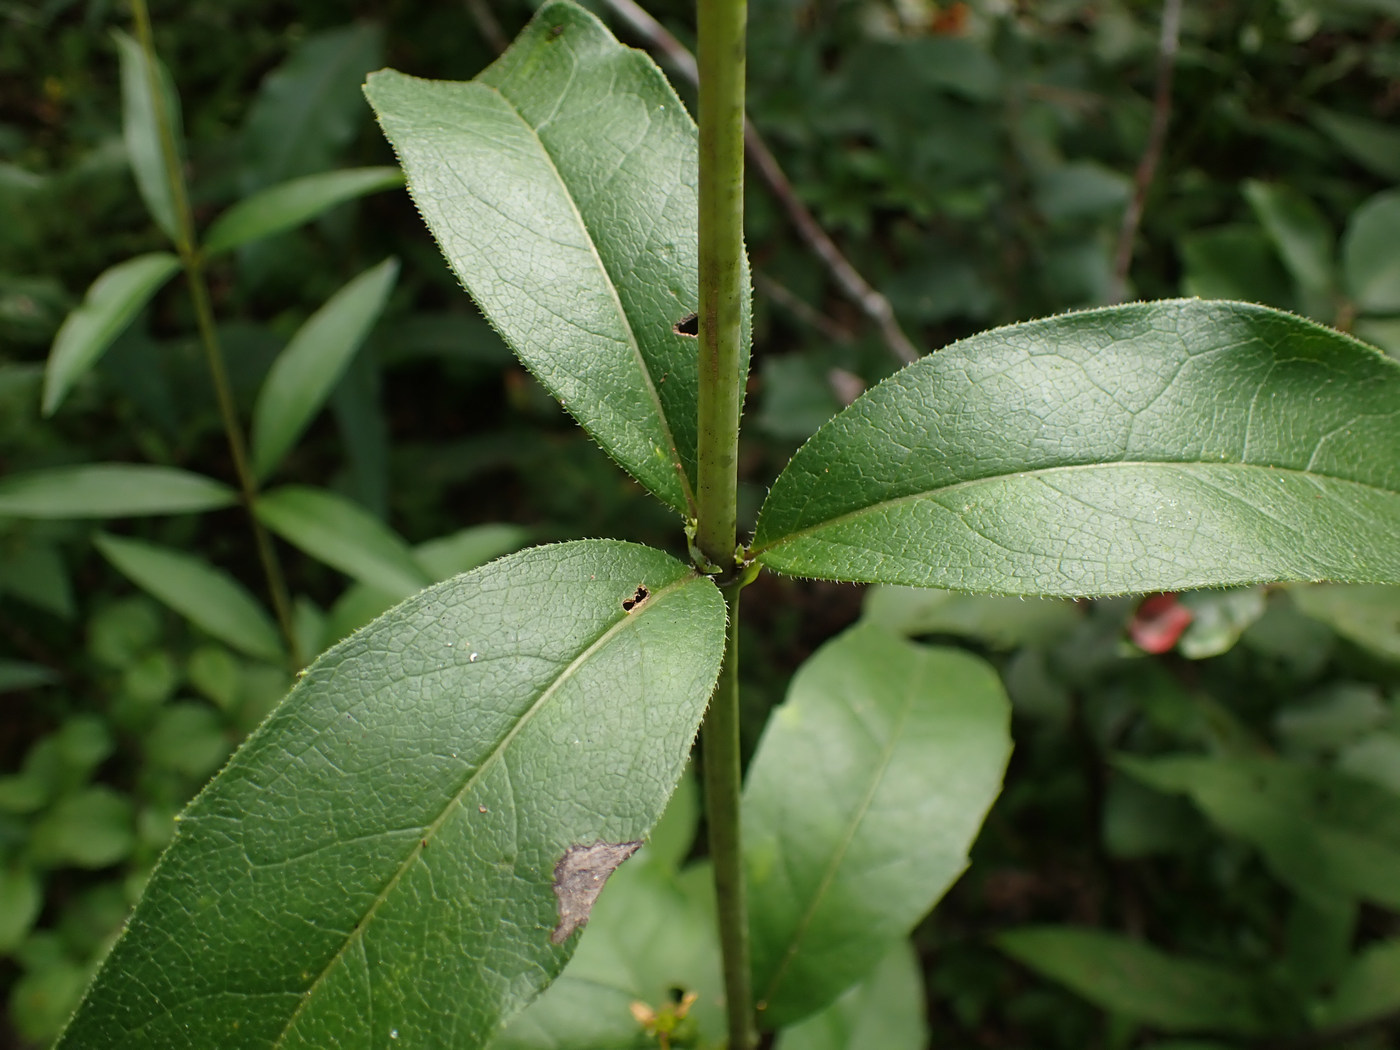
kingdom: Plantae
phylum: Tracheophyta
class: Magnoliopsida
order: Asterales
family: Asteraceae
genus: Silphium
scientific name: Silphium asteriscus
